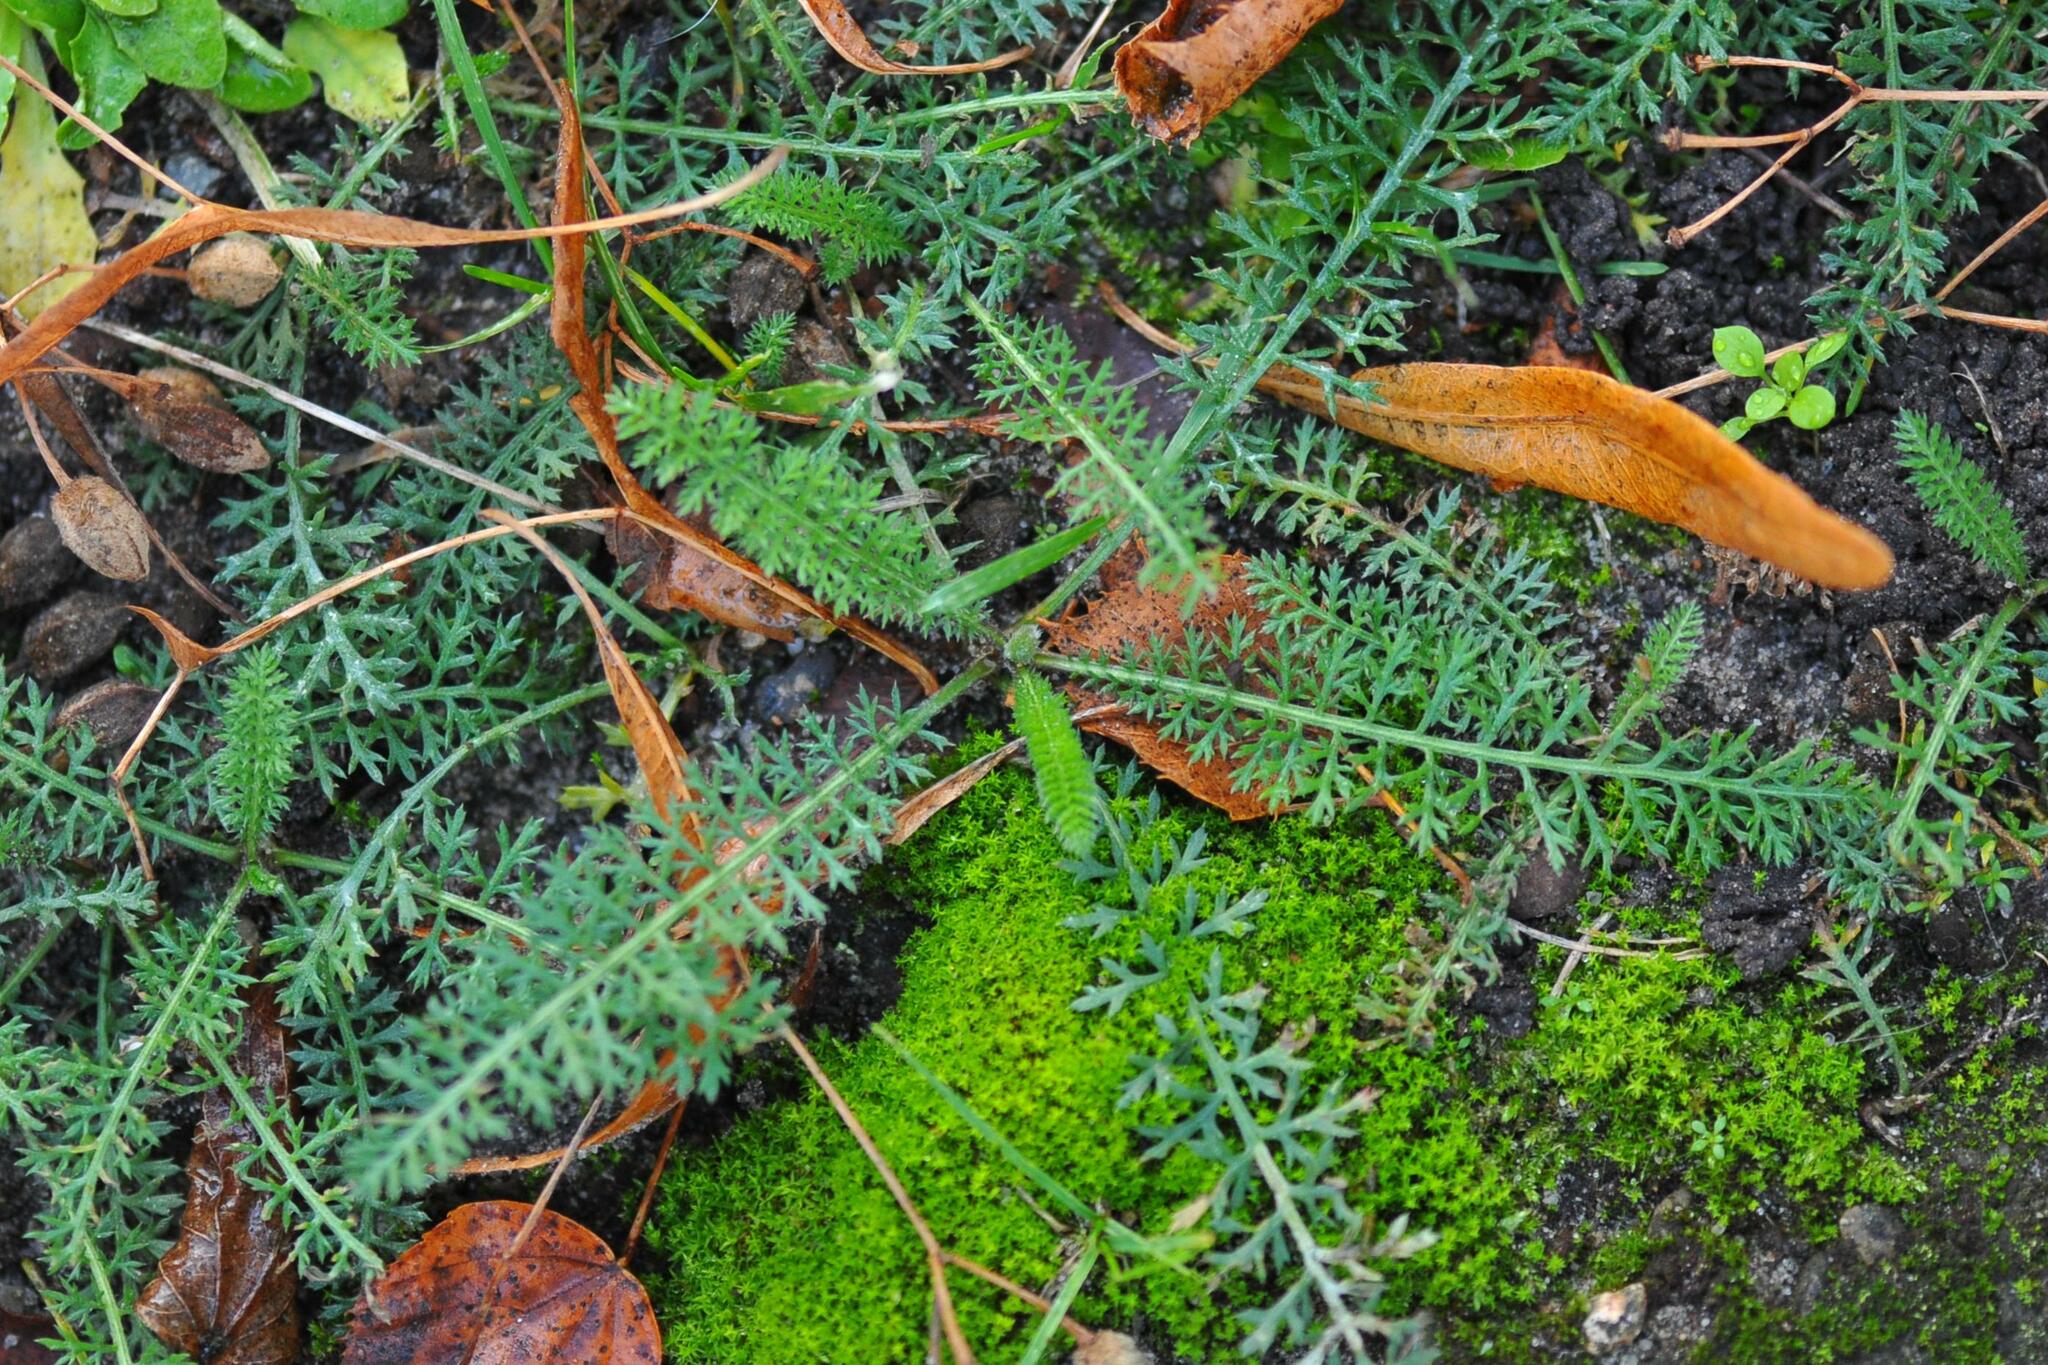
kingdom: Plantae
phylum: Tracheophyta
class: Magnoliopsida
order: Asterales
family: Asteraceae
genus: Achillea
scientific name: Achillea millefolium
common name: Yarrow
